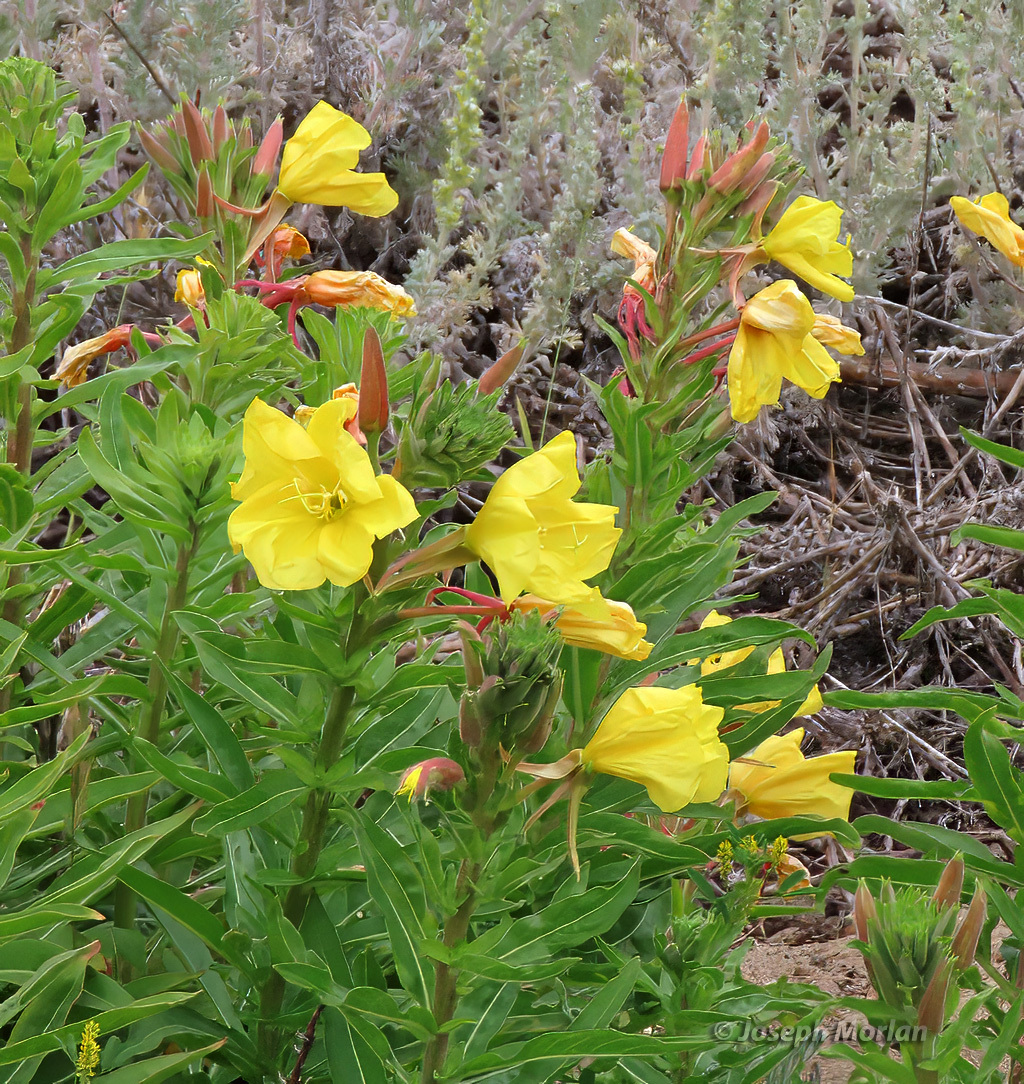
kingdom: Plantae
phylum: Tracheophyta
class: Magnoliopsida
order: Myrtales
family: Onagraceae
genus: Oenothera
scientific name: Oenothera elata
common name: Hooker's evening-primrose
